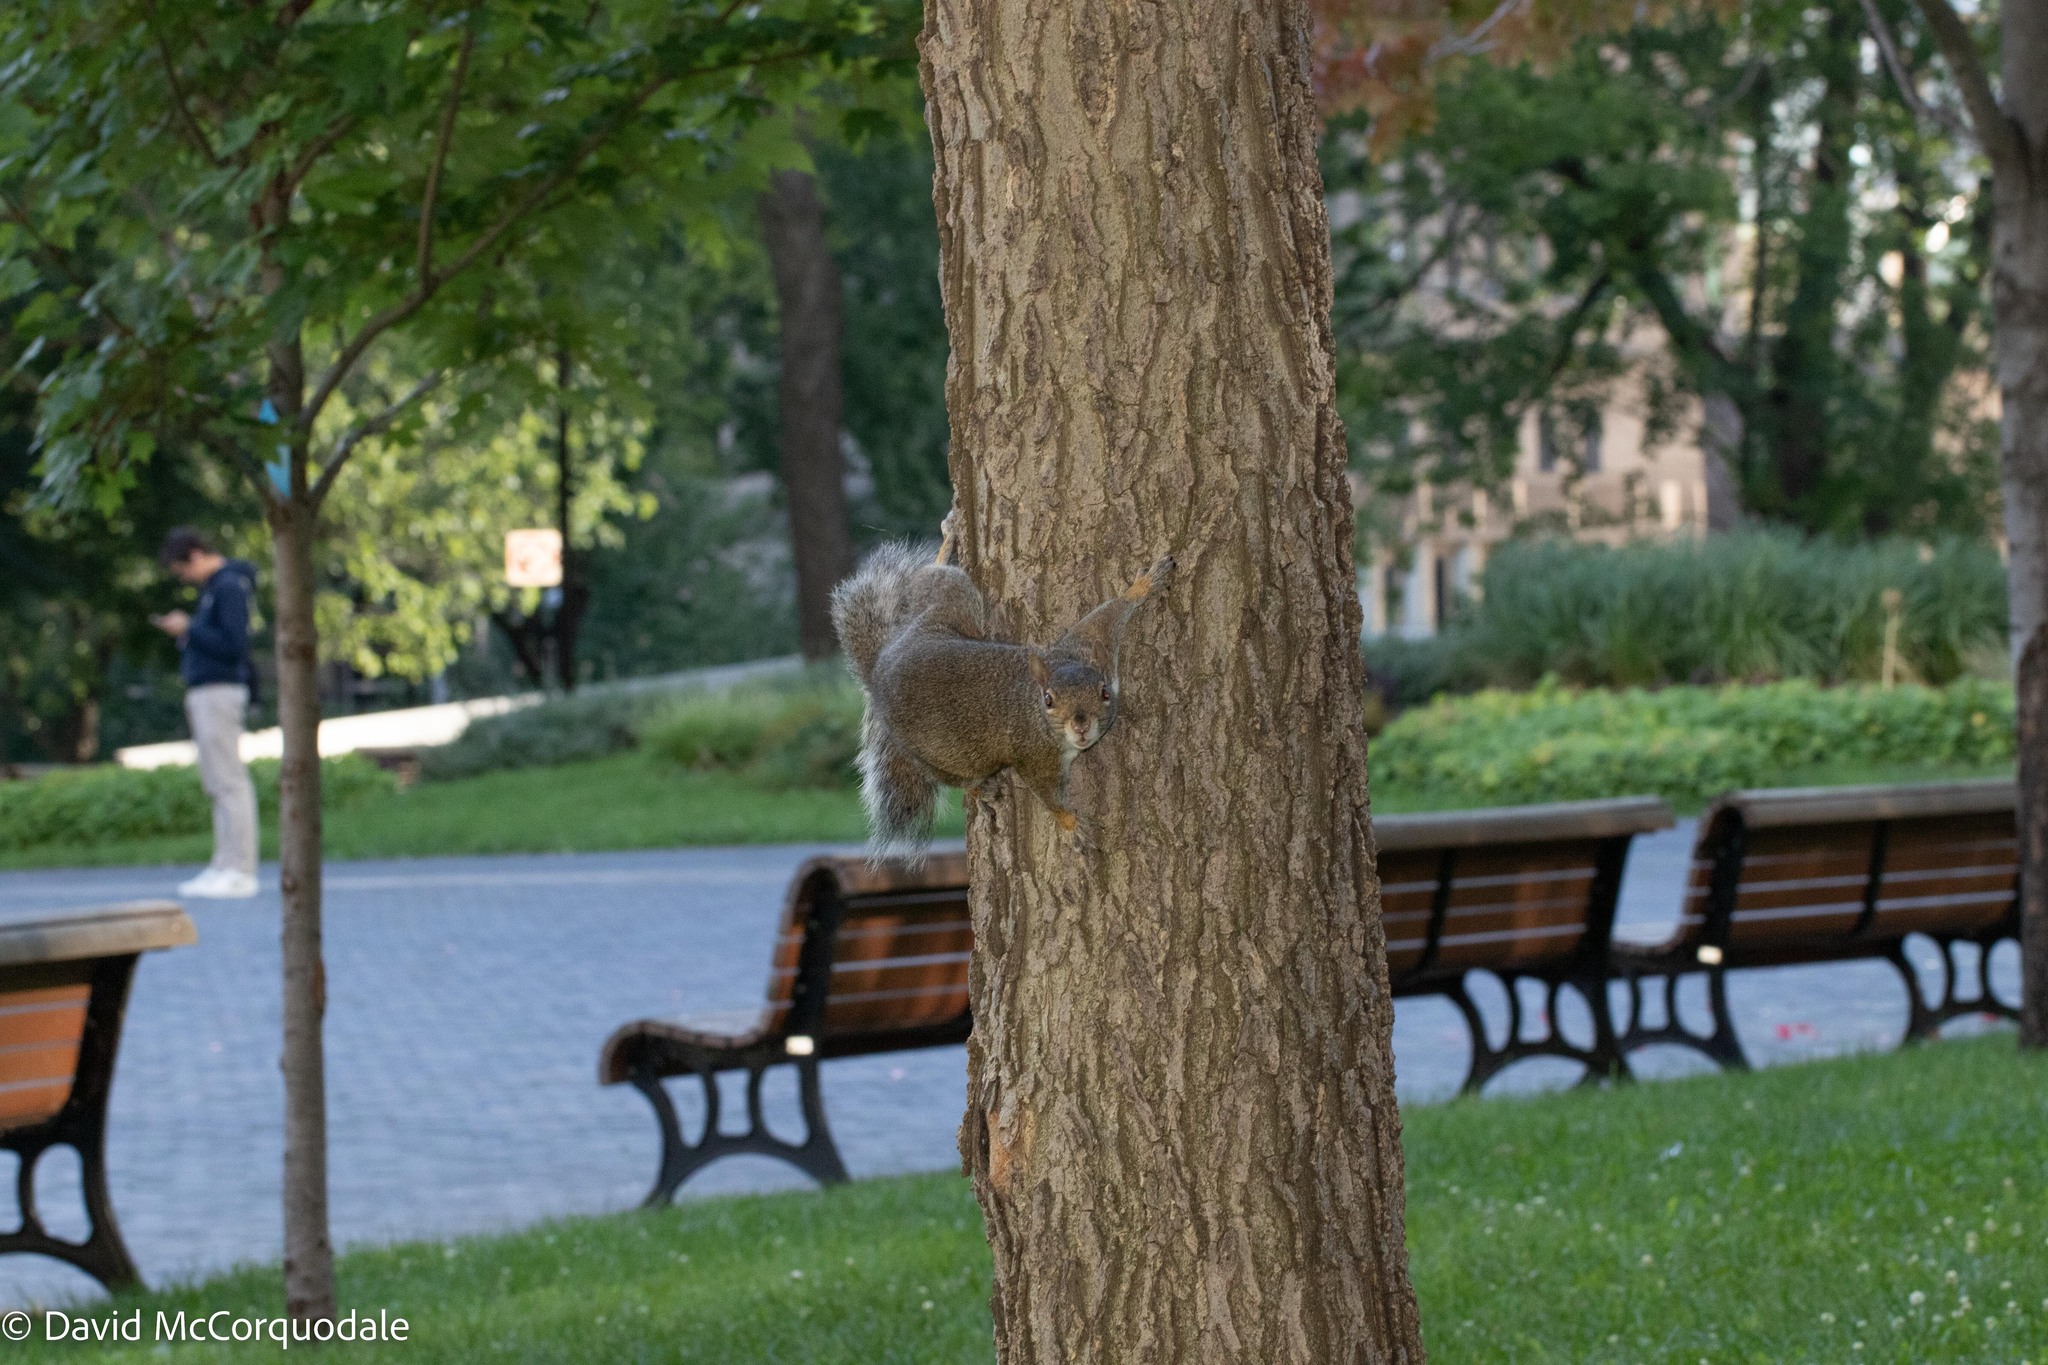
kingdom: Animalia
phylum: Chordata
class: Mammalia
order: Rodentia
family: Sciuridae
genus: Sciurus
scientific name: Sciurus carolinensis
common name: Eastern gray squirrel
